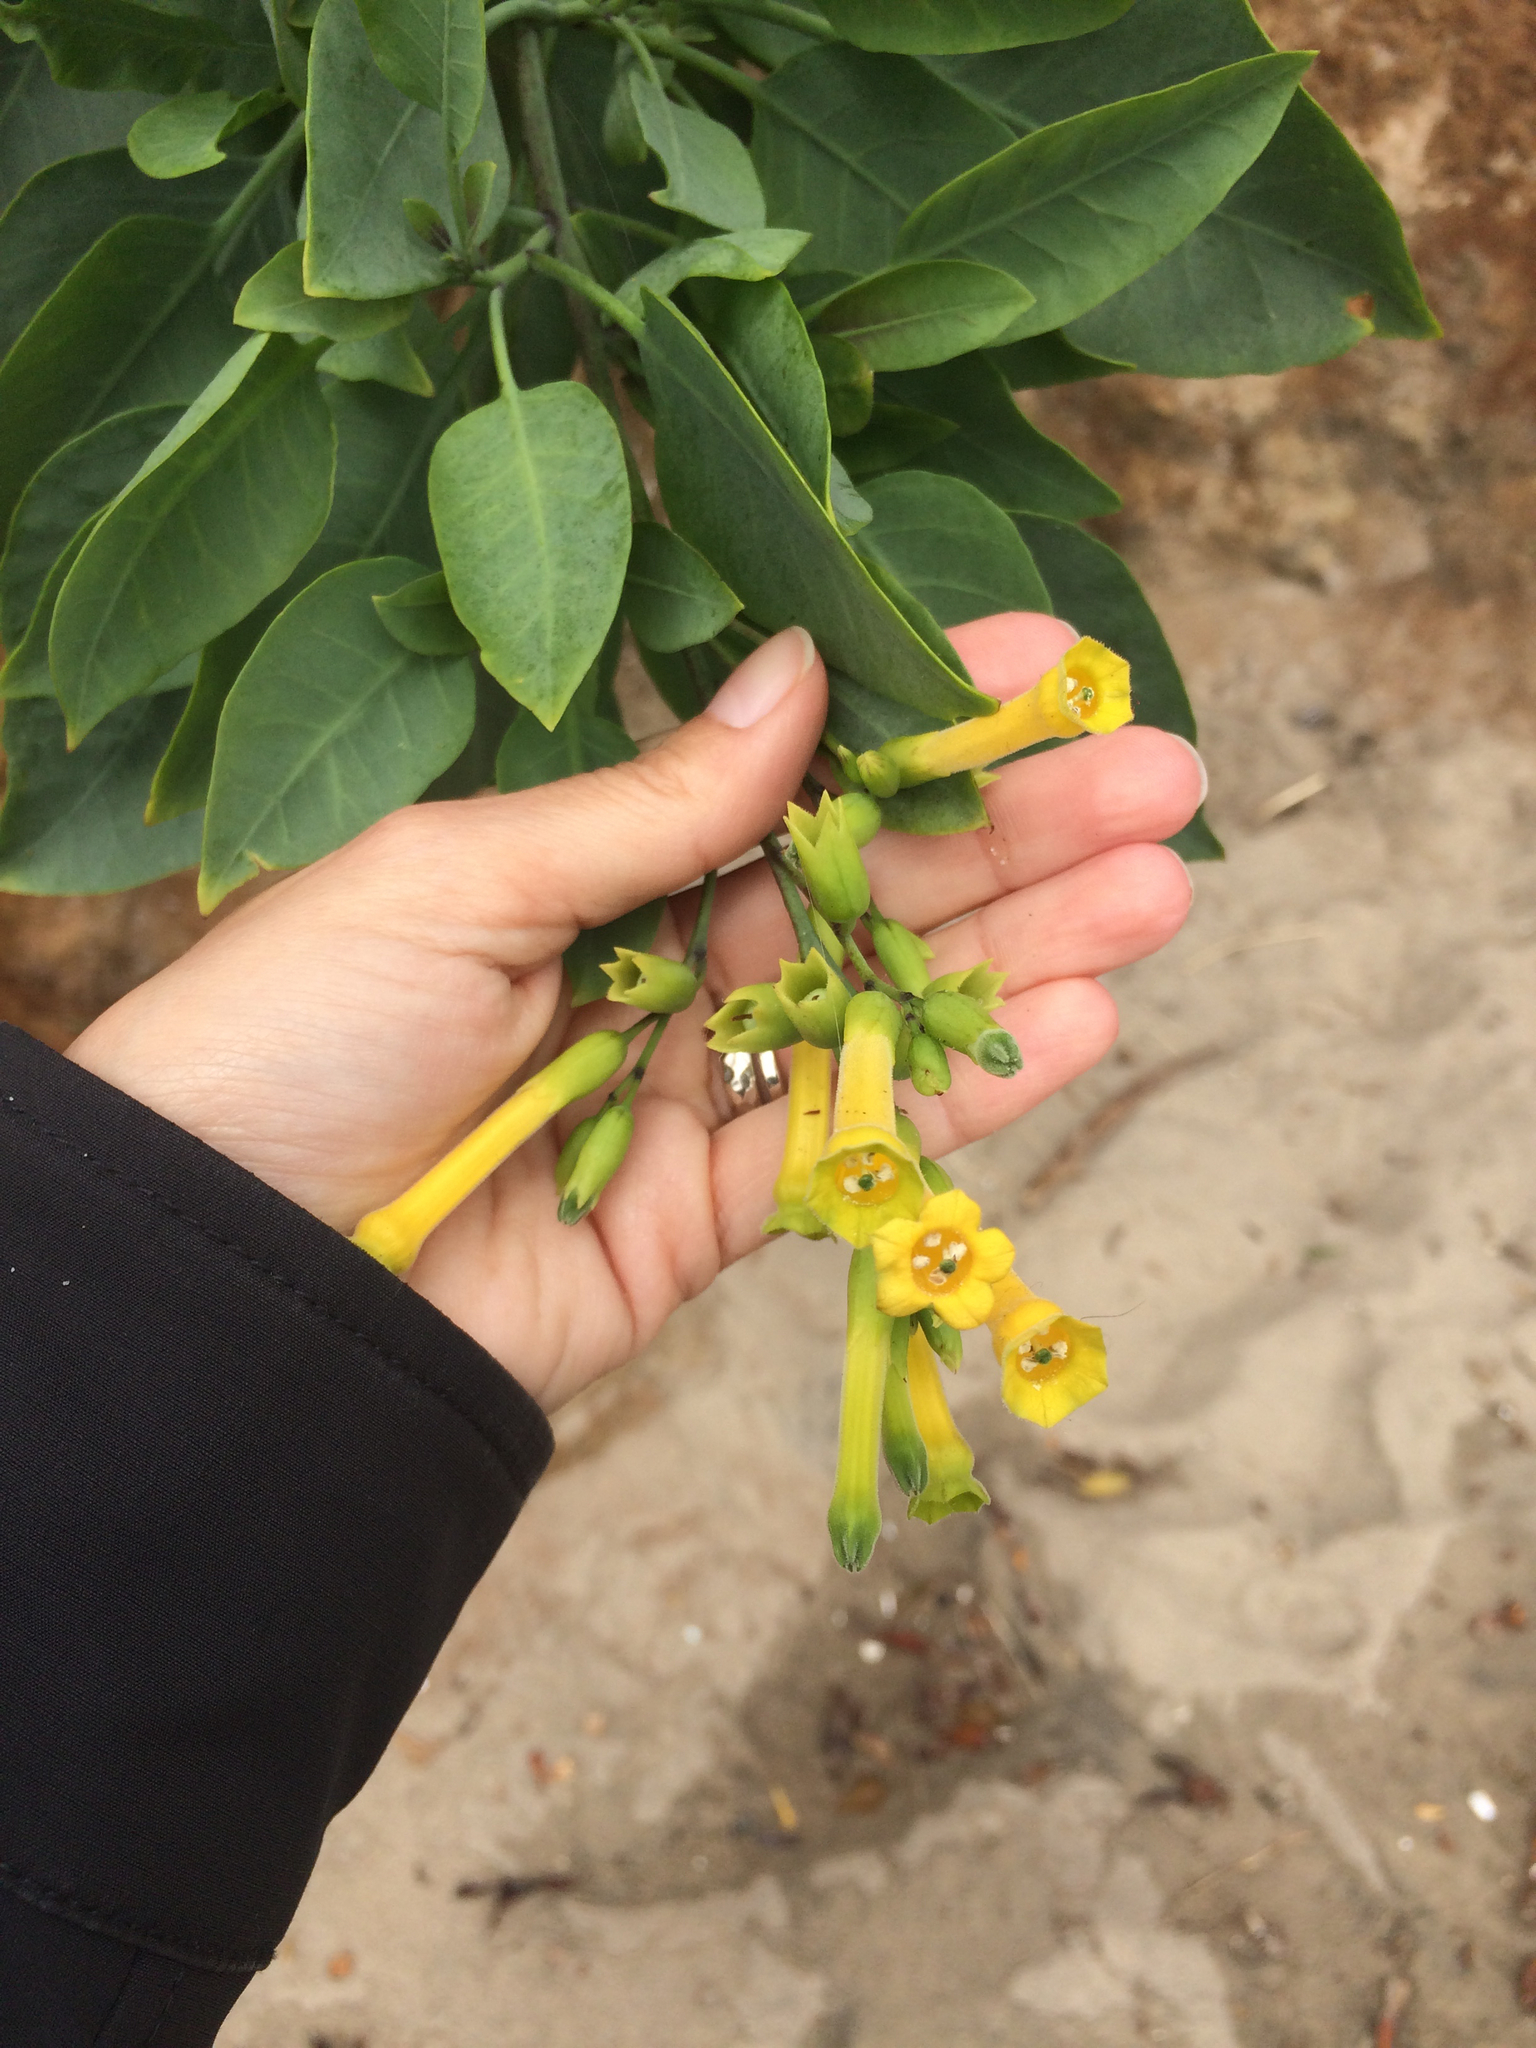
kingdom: Plantae
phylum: Tracheophyta
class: Magnoliopsida
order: Solanales
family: Solanaceae
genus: Nicotiana
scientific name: Nicotiana glauca
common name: Tree tobacco
